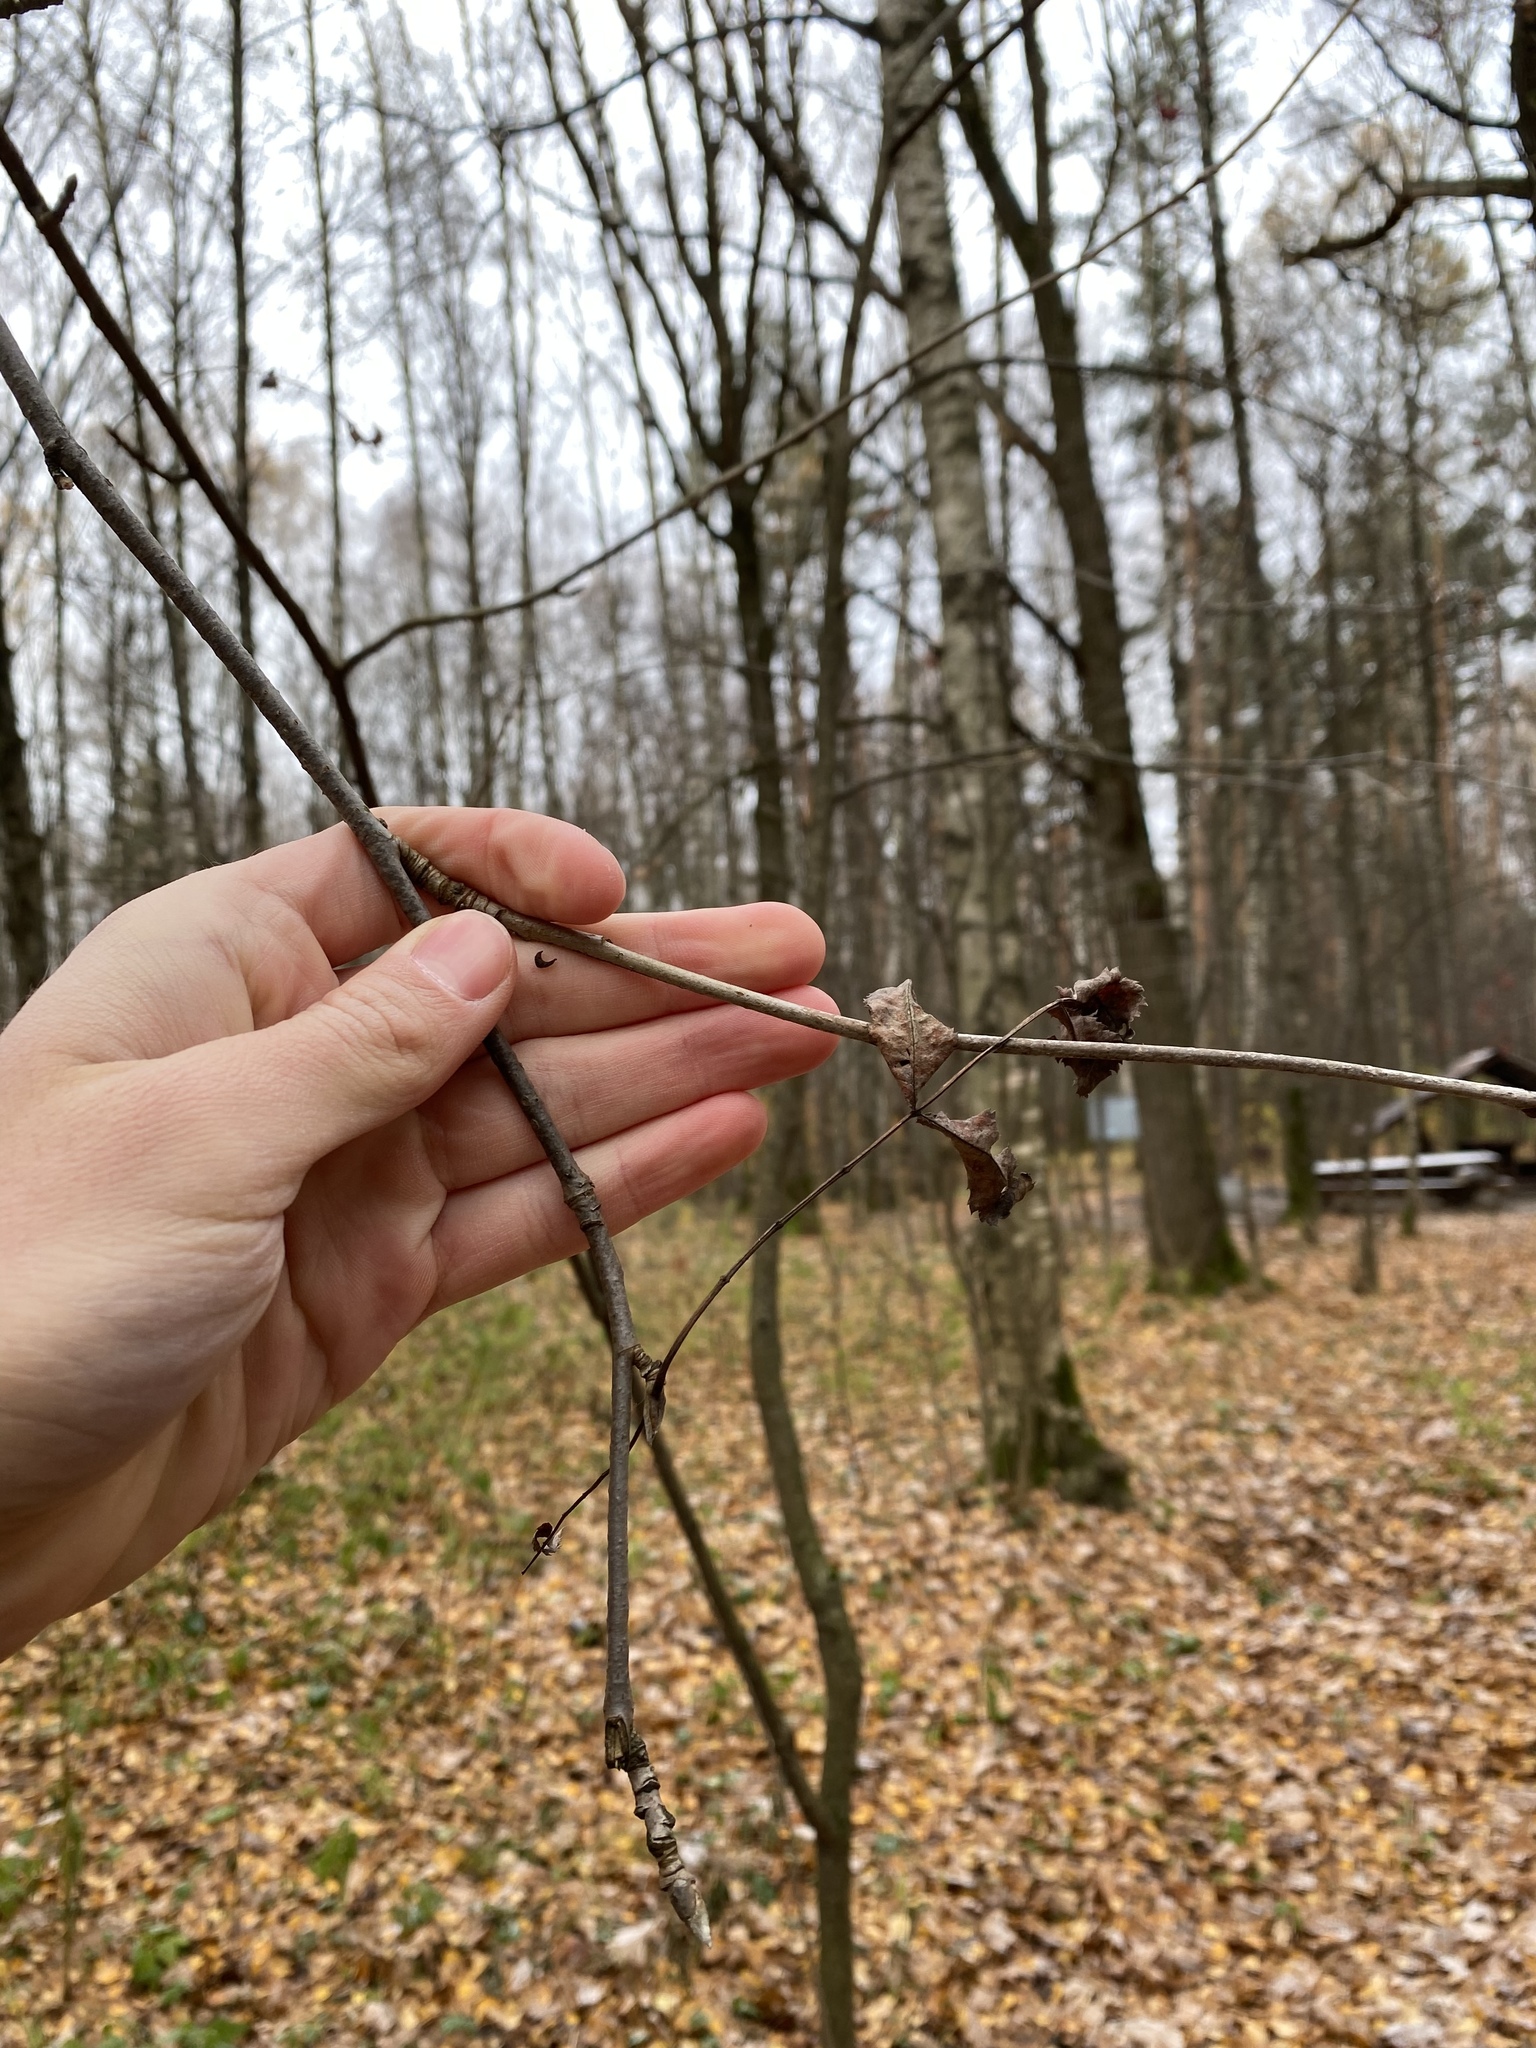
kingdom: Plantae
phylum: Tracheophyta
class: Magnoliopsida
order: Rosales
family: Rosaceae
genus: Sorbus
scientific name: Sorbus aucuparia
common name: Rowan
